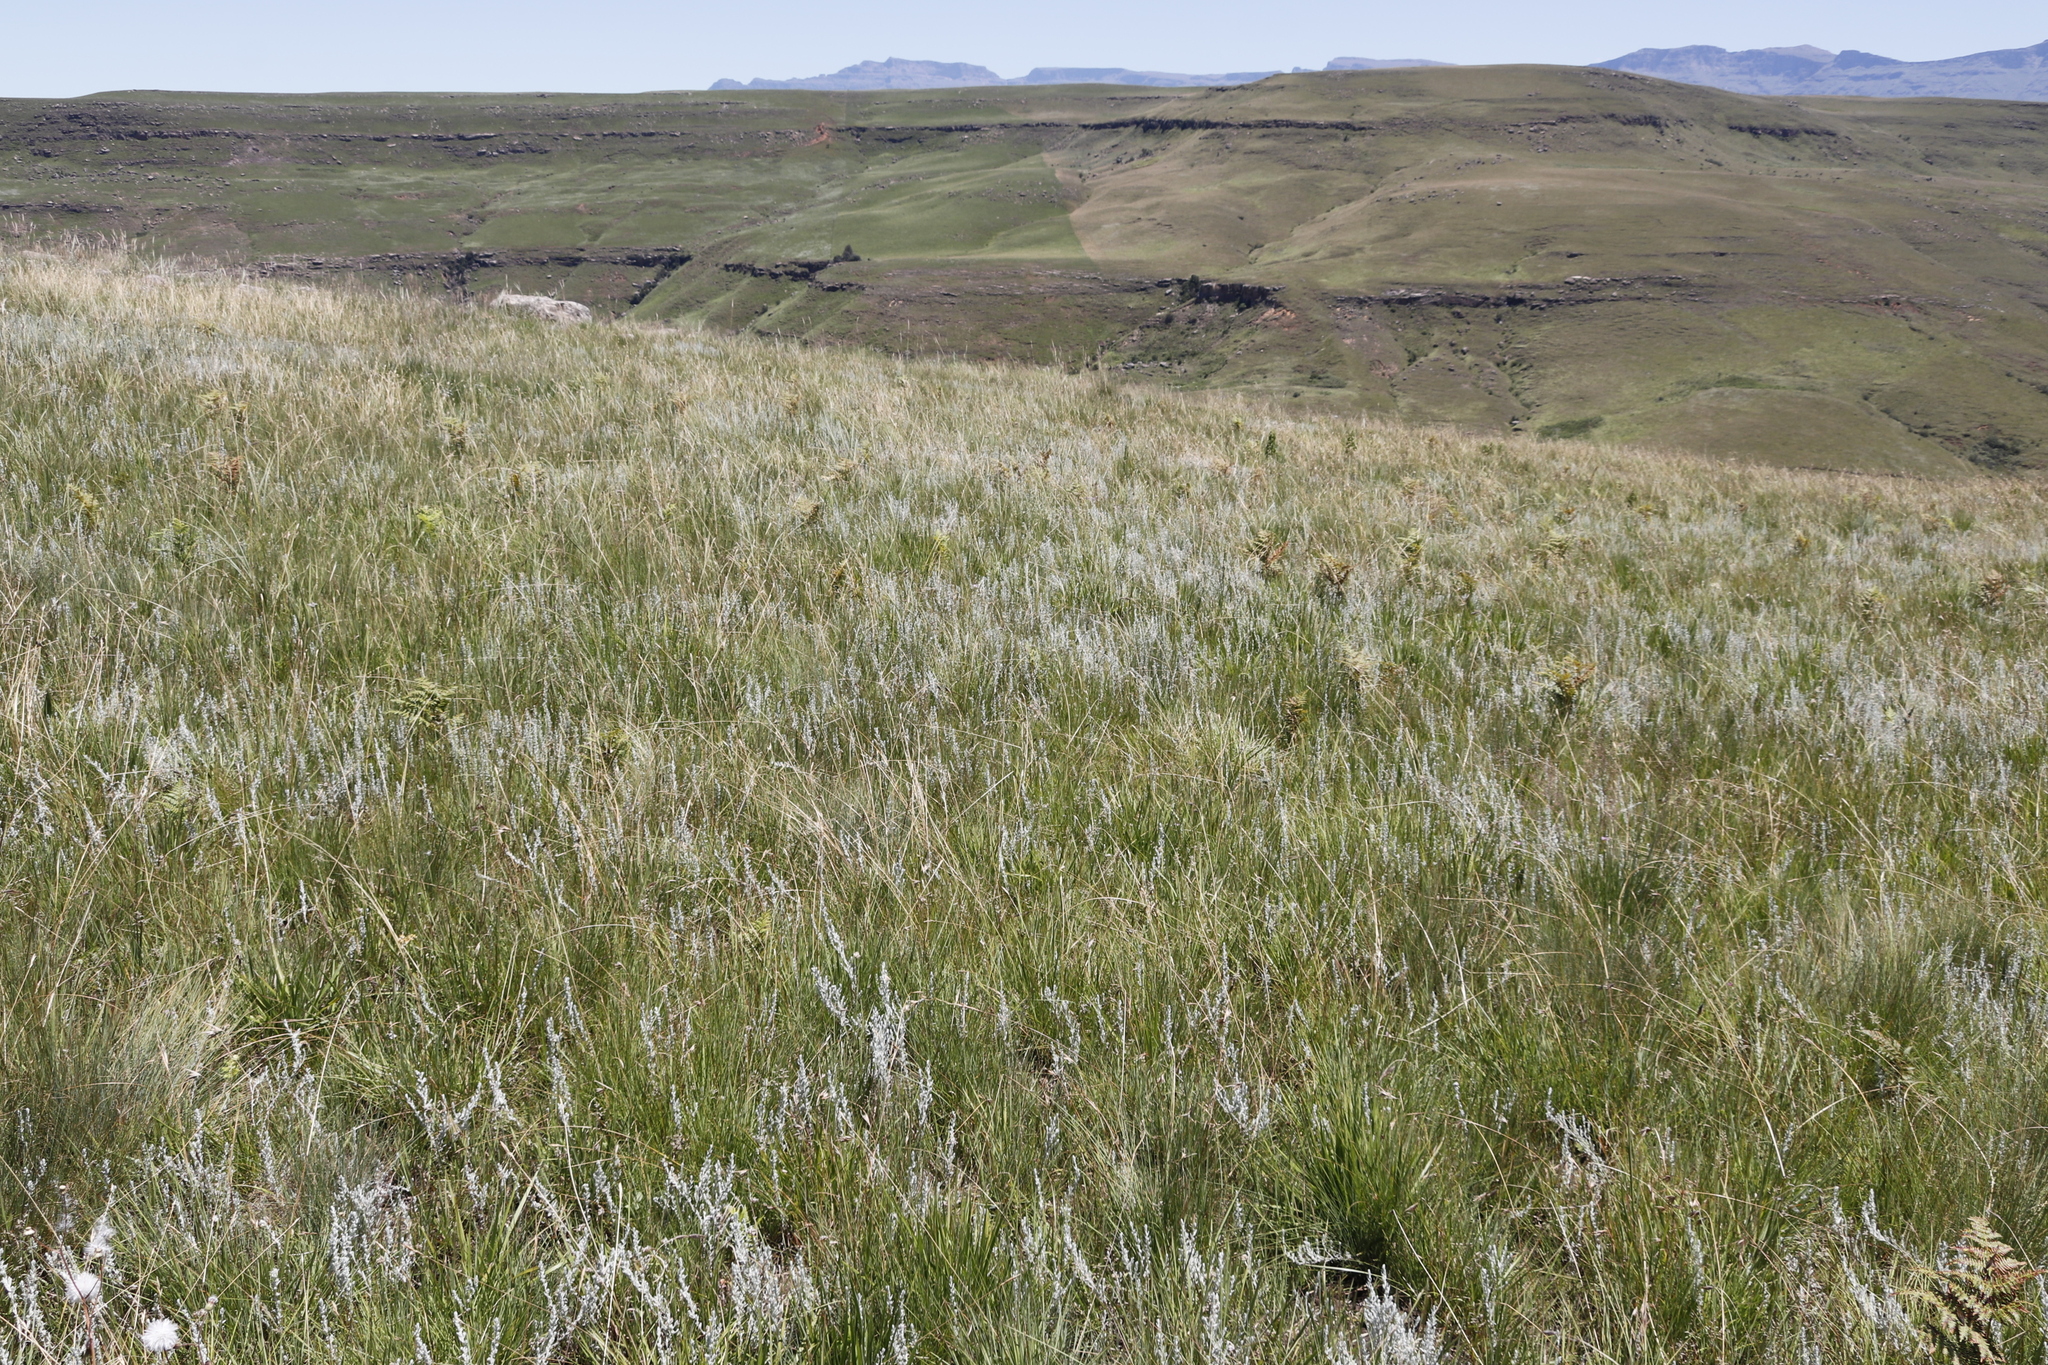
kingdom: Plantae
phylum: Tracheophyta
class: Liliopsida
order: Poales
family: Poaceae
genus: Themeda
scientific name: Themeda triandra
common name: Kangaroo grass
